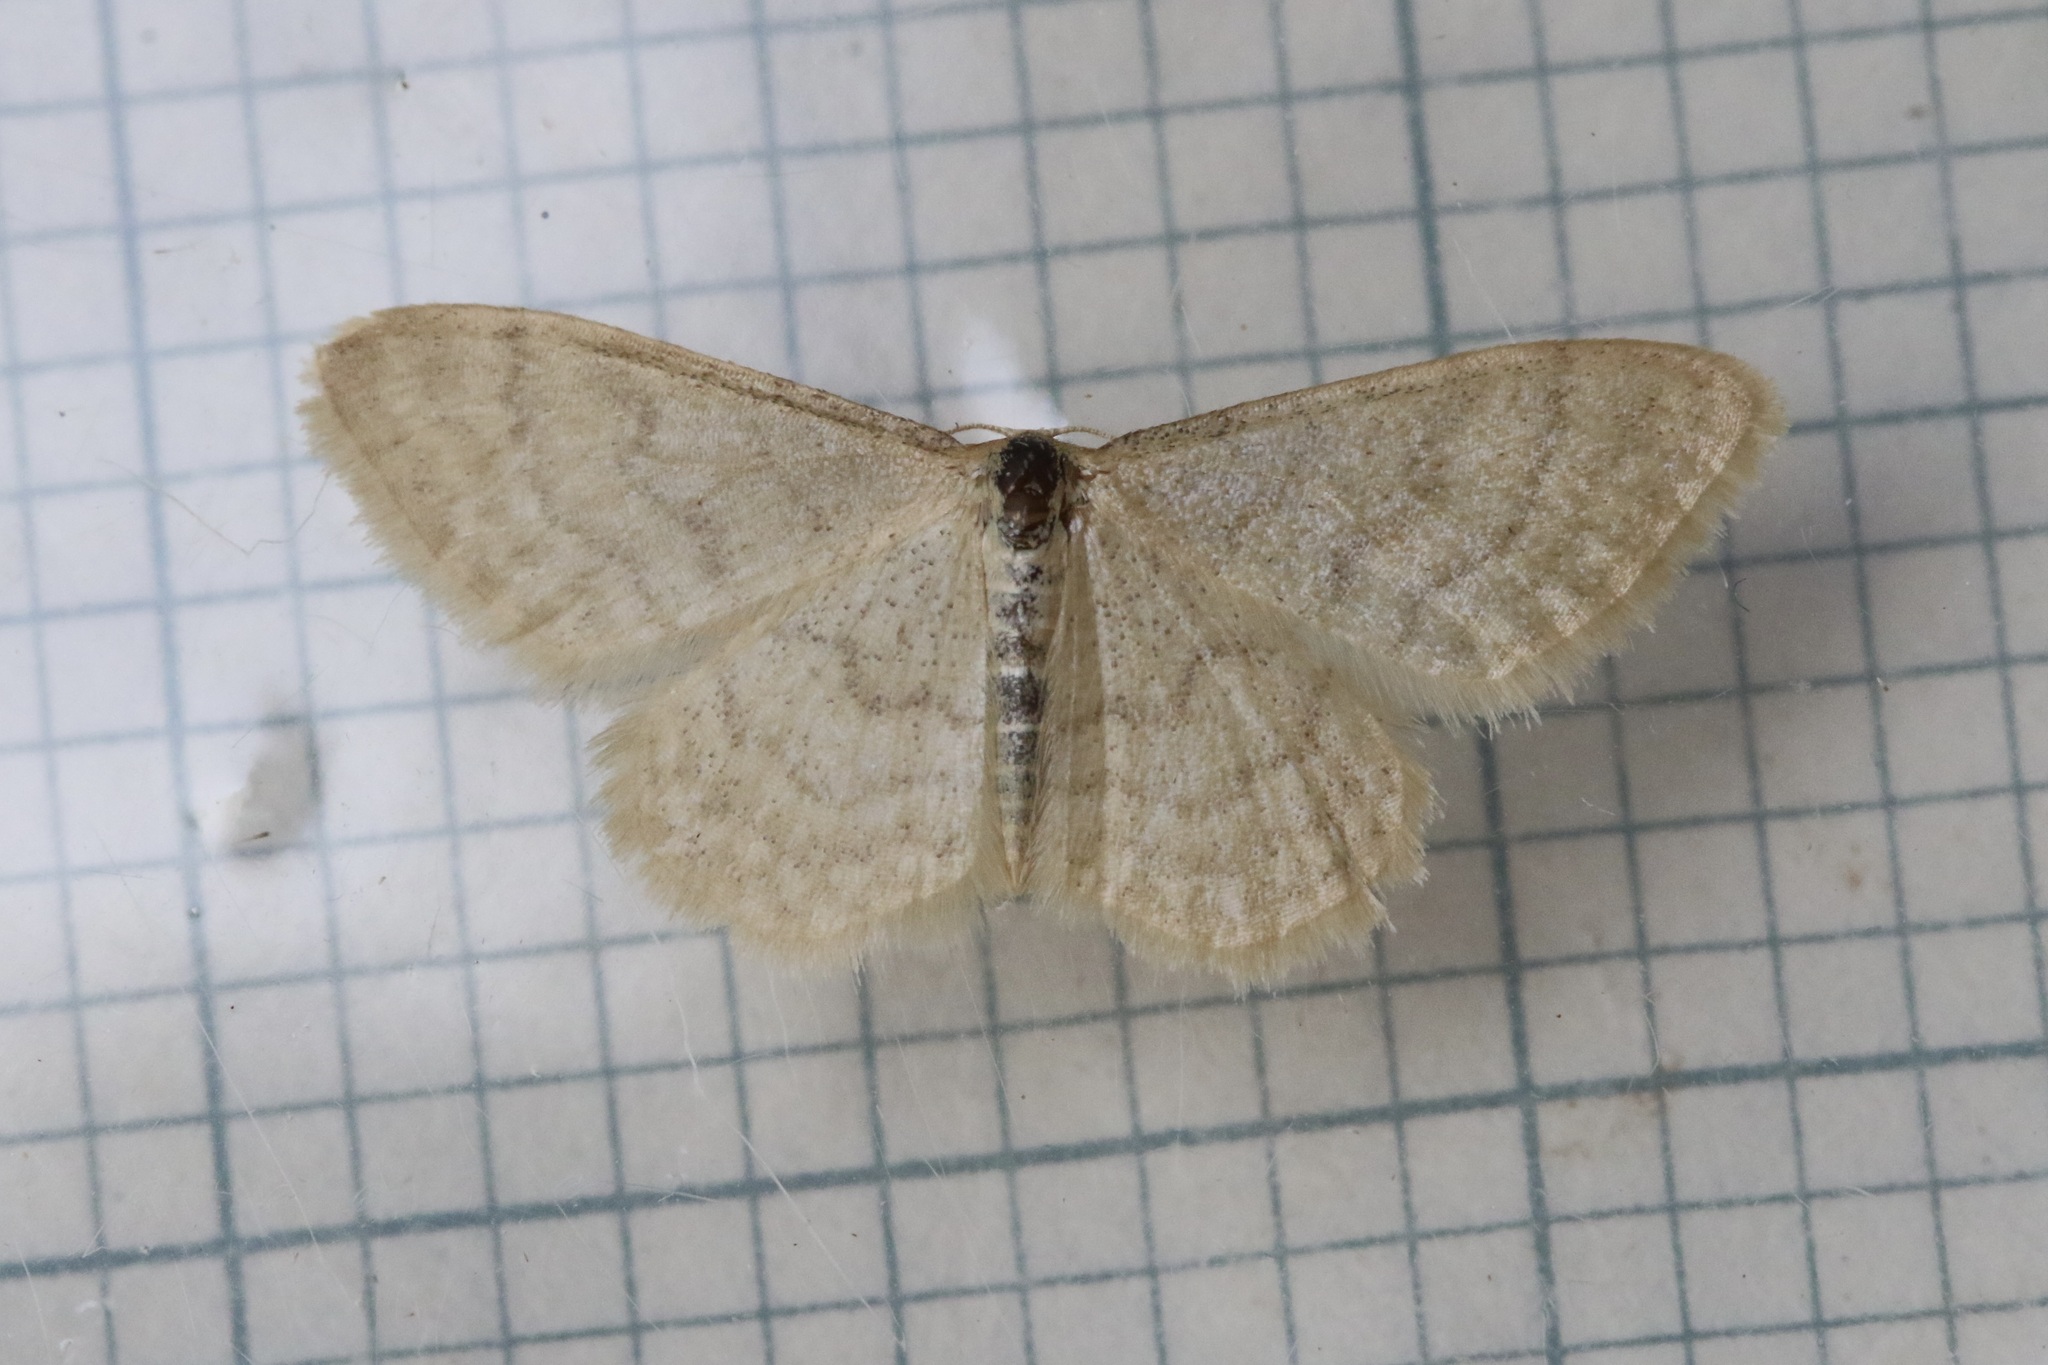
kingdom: Animalia
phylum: Arthropoda
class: Insecta
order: Lepidoptera
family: Geometridae
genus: Idaea
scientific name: Idaea dilutaria
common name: Silky wave
